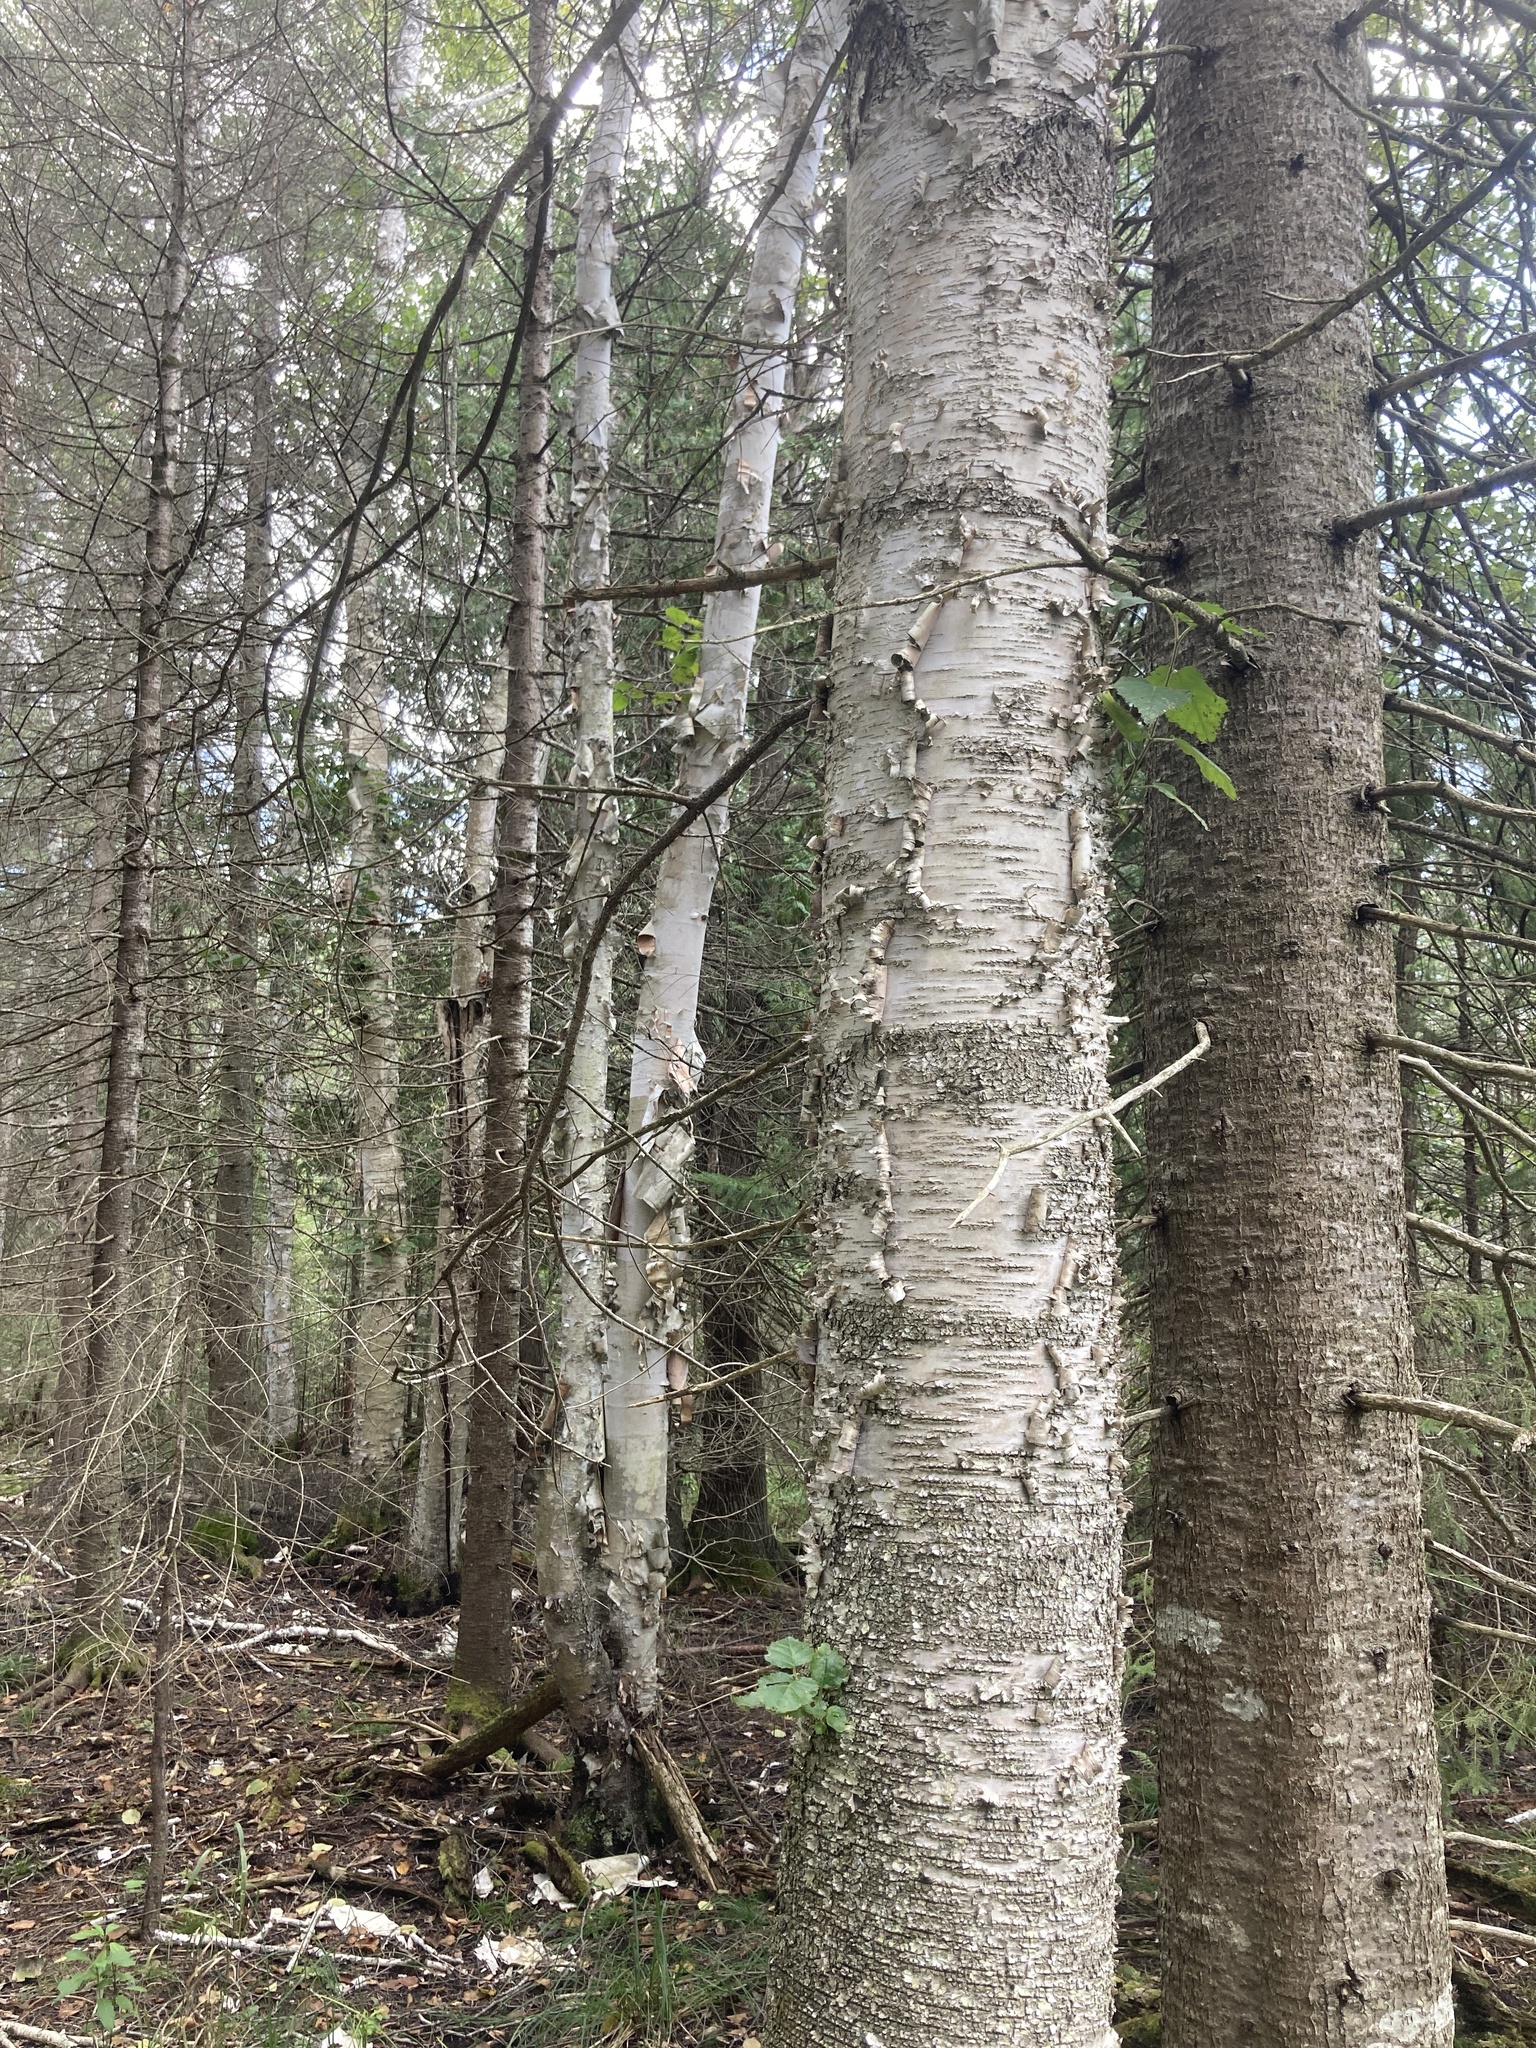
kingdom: Plantae
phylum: Tracheophyta
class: Magnoliopsida
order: Fagales
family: Betulaceae
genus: Betula
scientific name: Betula papyrifera
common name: Paper birch
